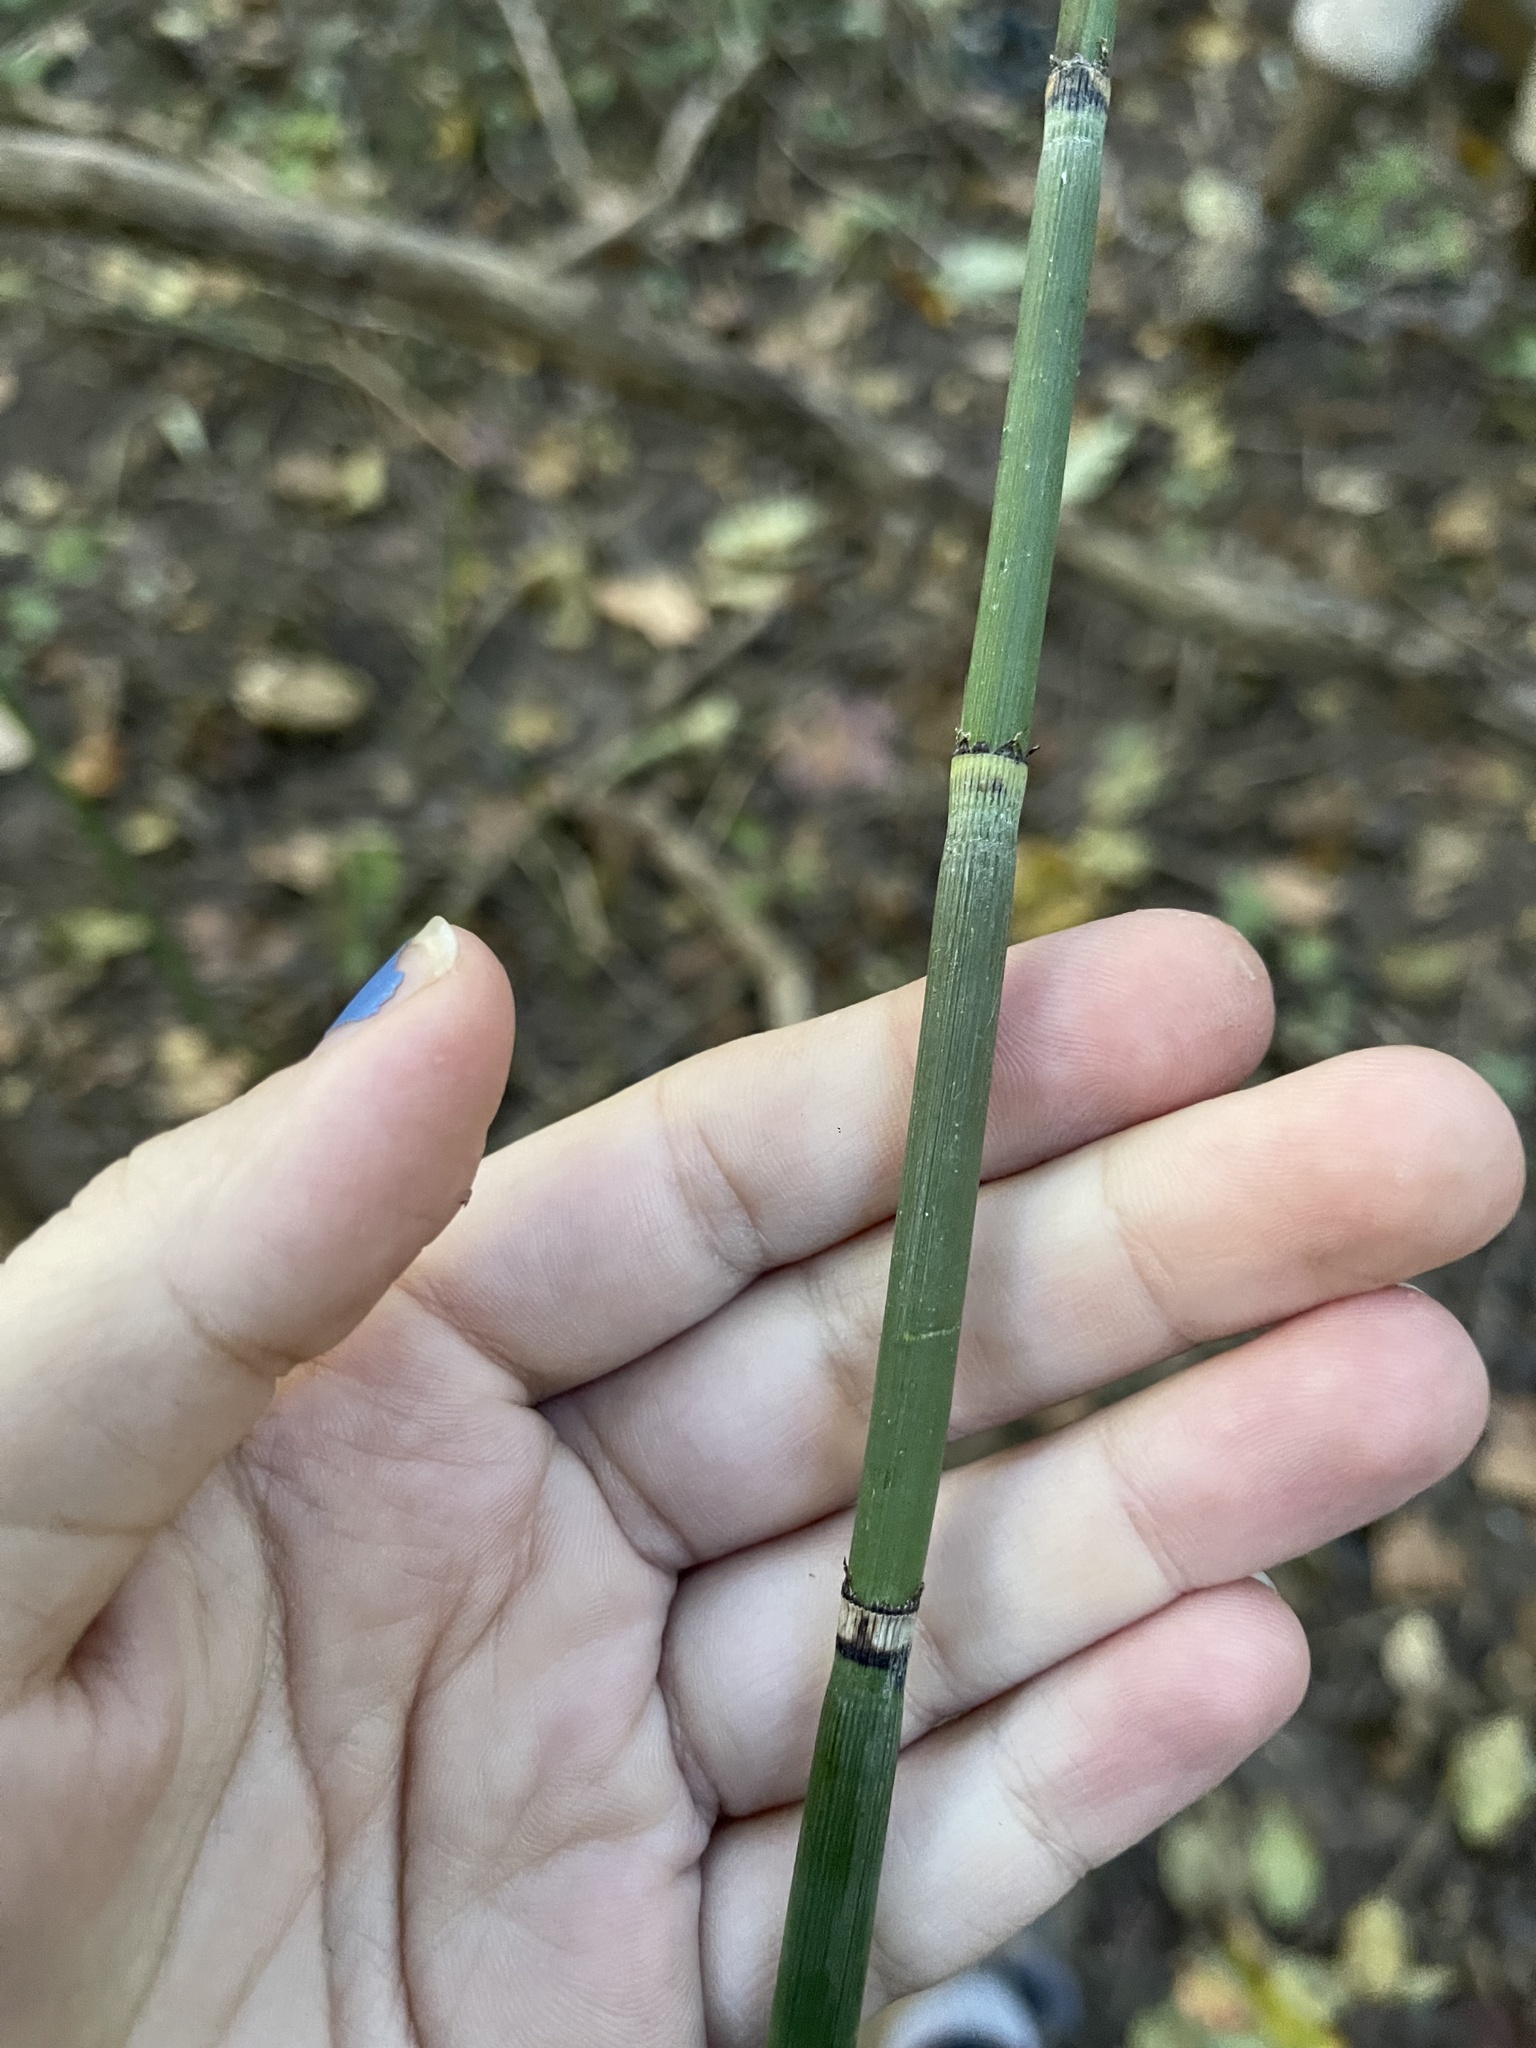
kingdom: Plantae
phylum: Tracheophyta
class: Polypodiopsida
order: Equisetales
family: Equisetaceae
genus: Equisetum
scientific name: Equisetum hyemale
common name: Rough horsetail
